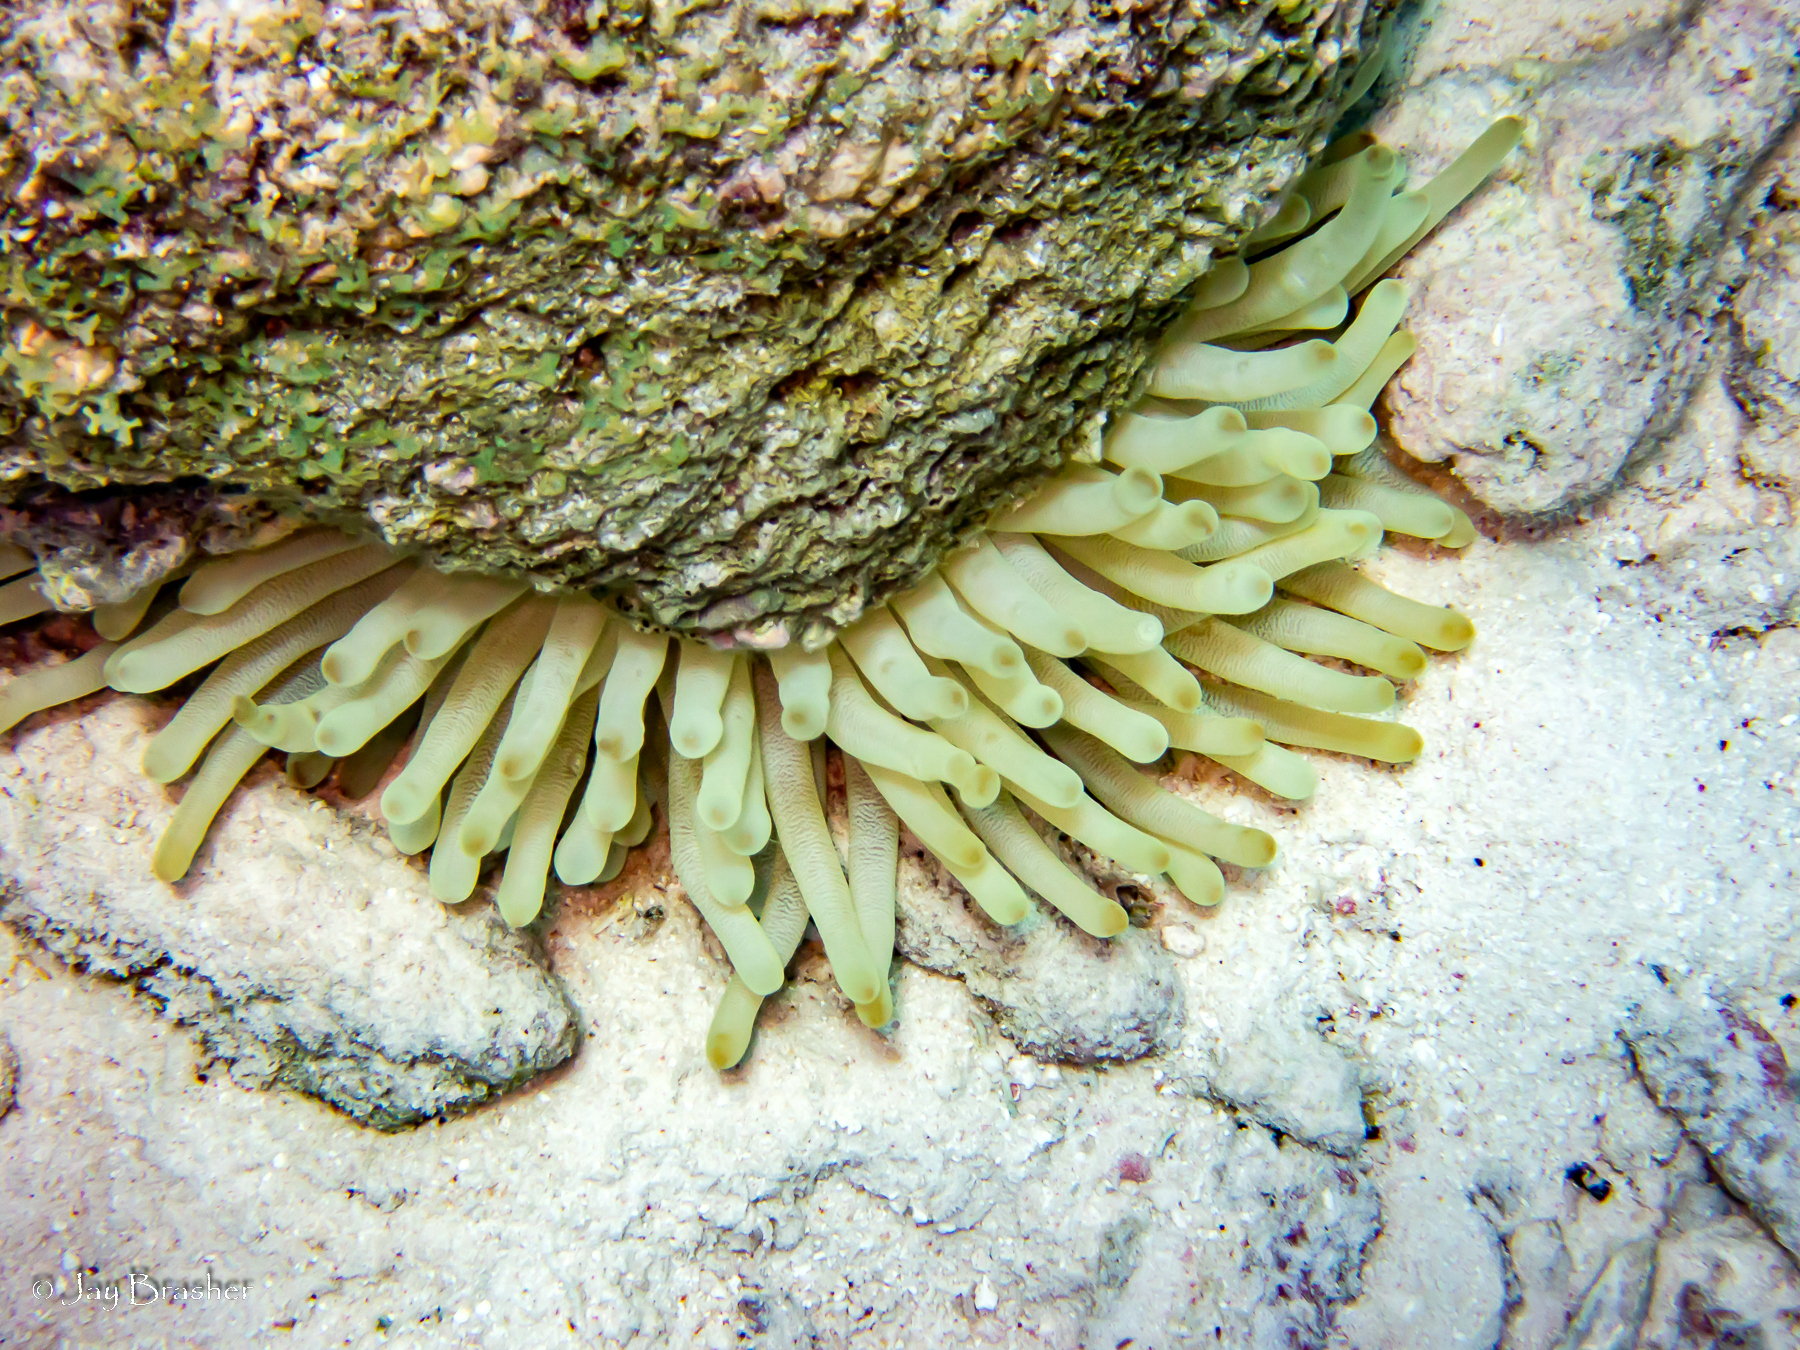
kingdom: Animalia
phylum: Cnidaria
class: Anthozoa
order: Actiniaria
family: Actiniidae
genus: Condylactis
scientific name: Condylactis gigantea
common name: Giant caribbean anemone
